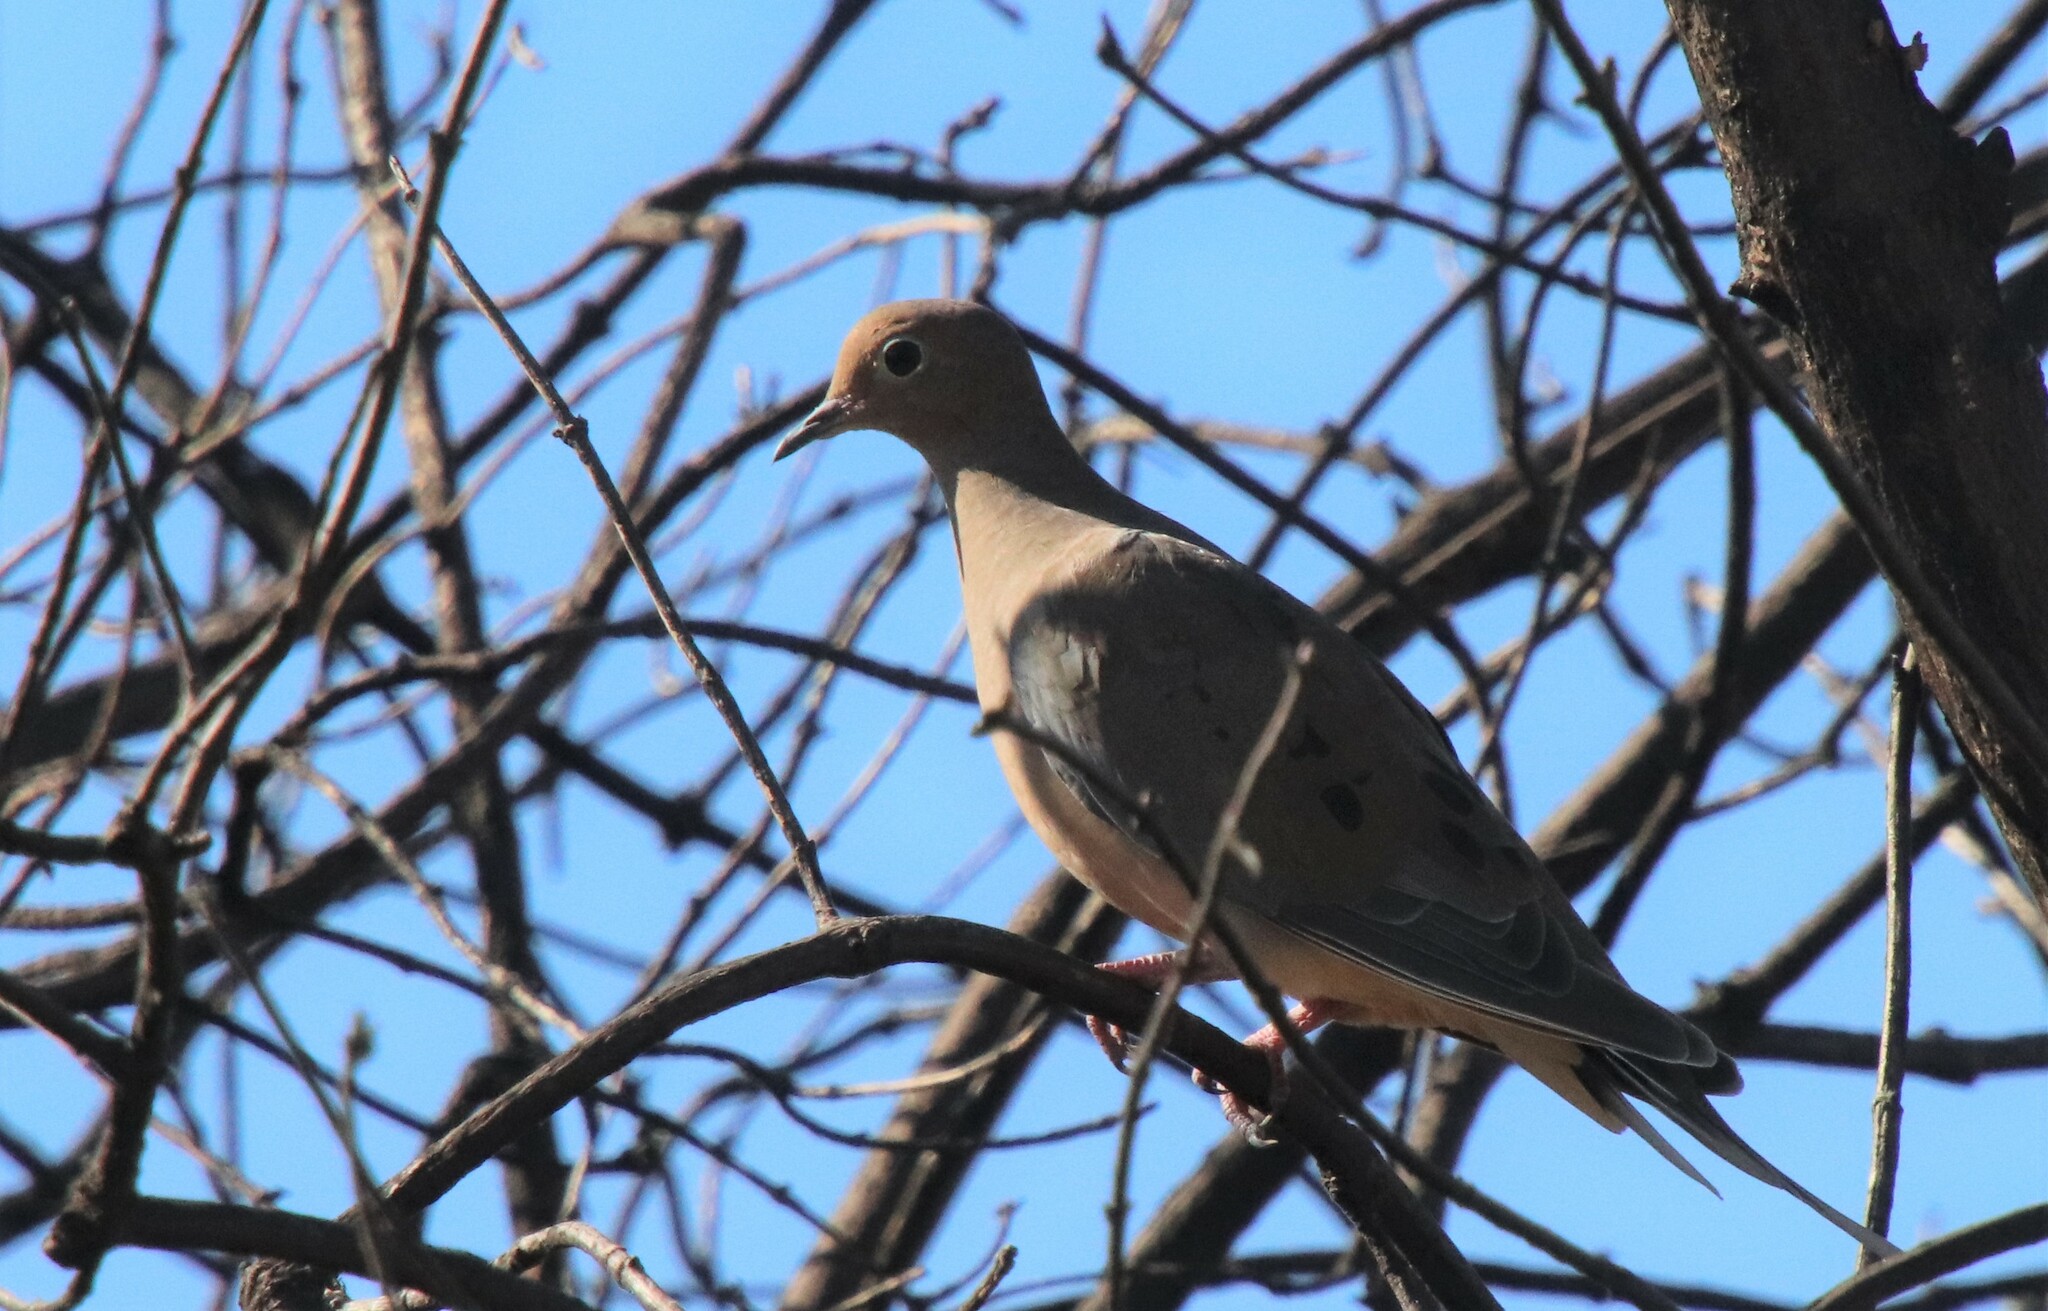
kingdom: Animalia
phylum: Chordata
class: Aves
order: Columbiformes
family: Columbidae
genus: Zenaida
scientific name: Zenaida macroura
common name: Mourning dove
